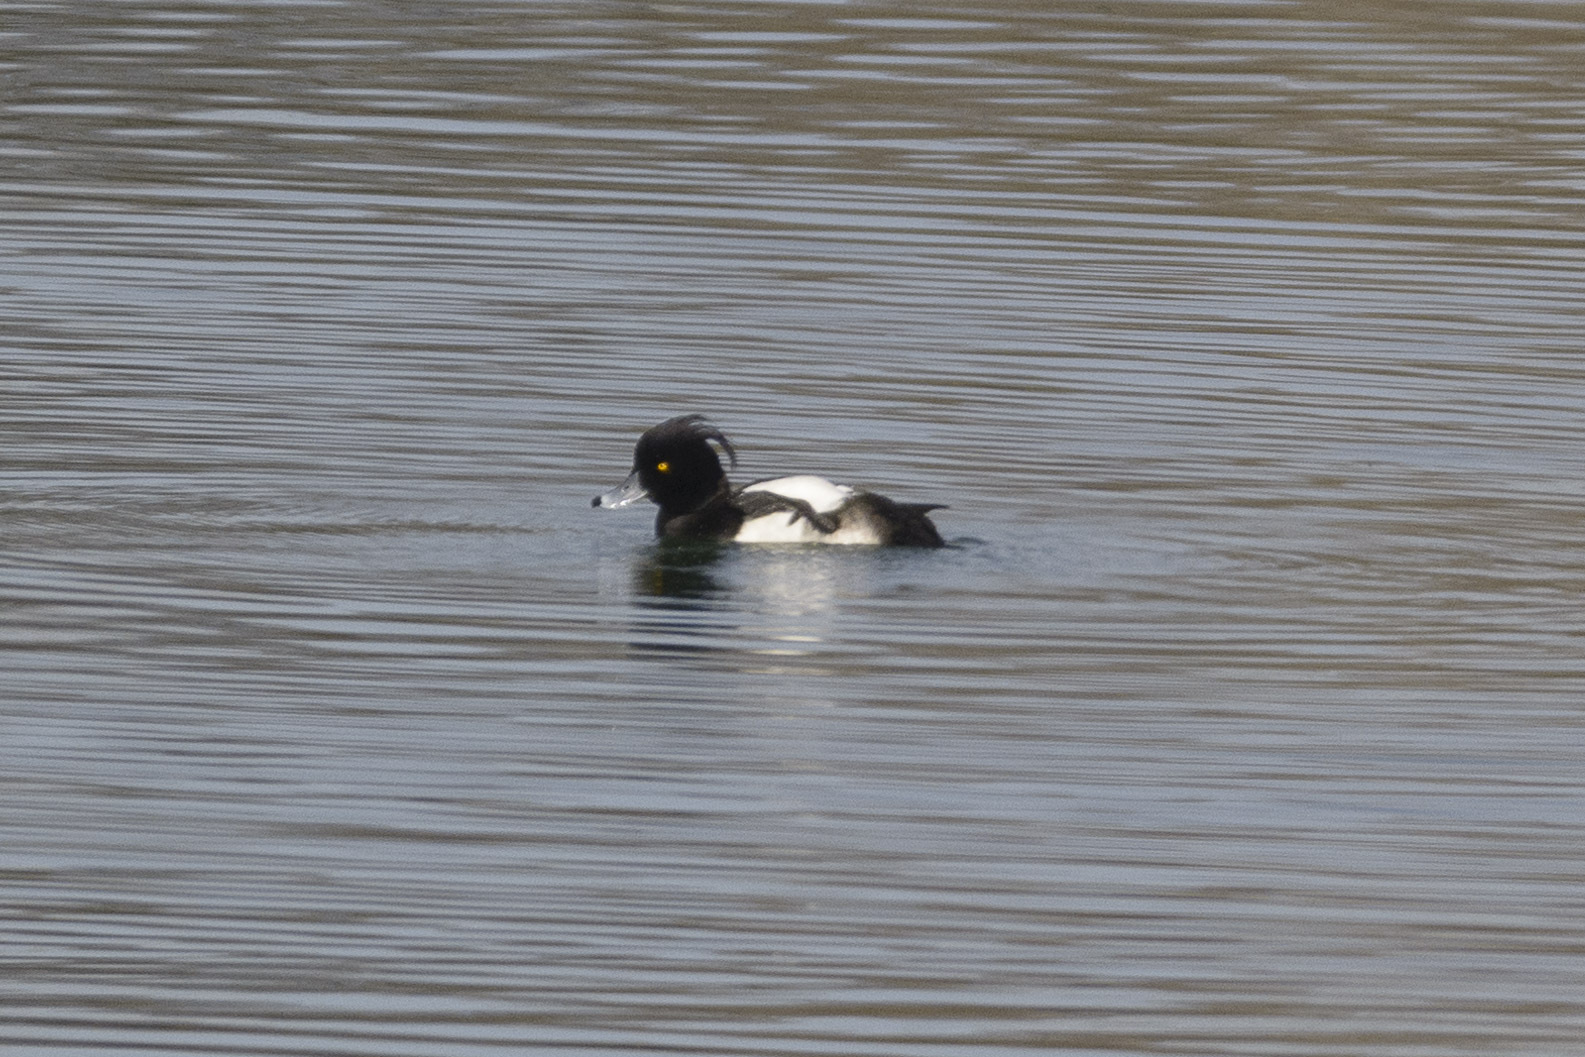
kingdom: Animalia
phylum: Chordata
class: Aves
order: Anseriformes
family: Anatidae
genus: Aythya
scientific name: Aythya fuligula
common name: Tufted duck
